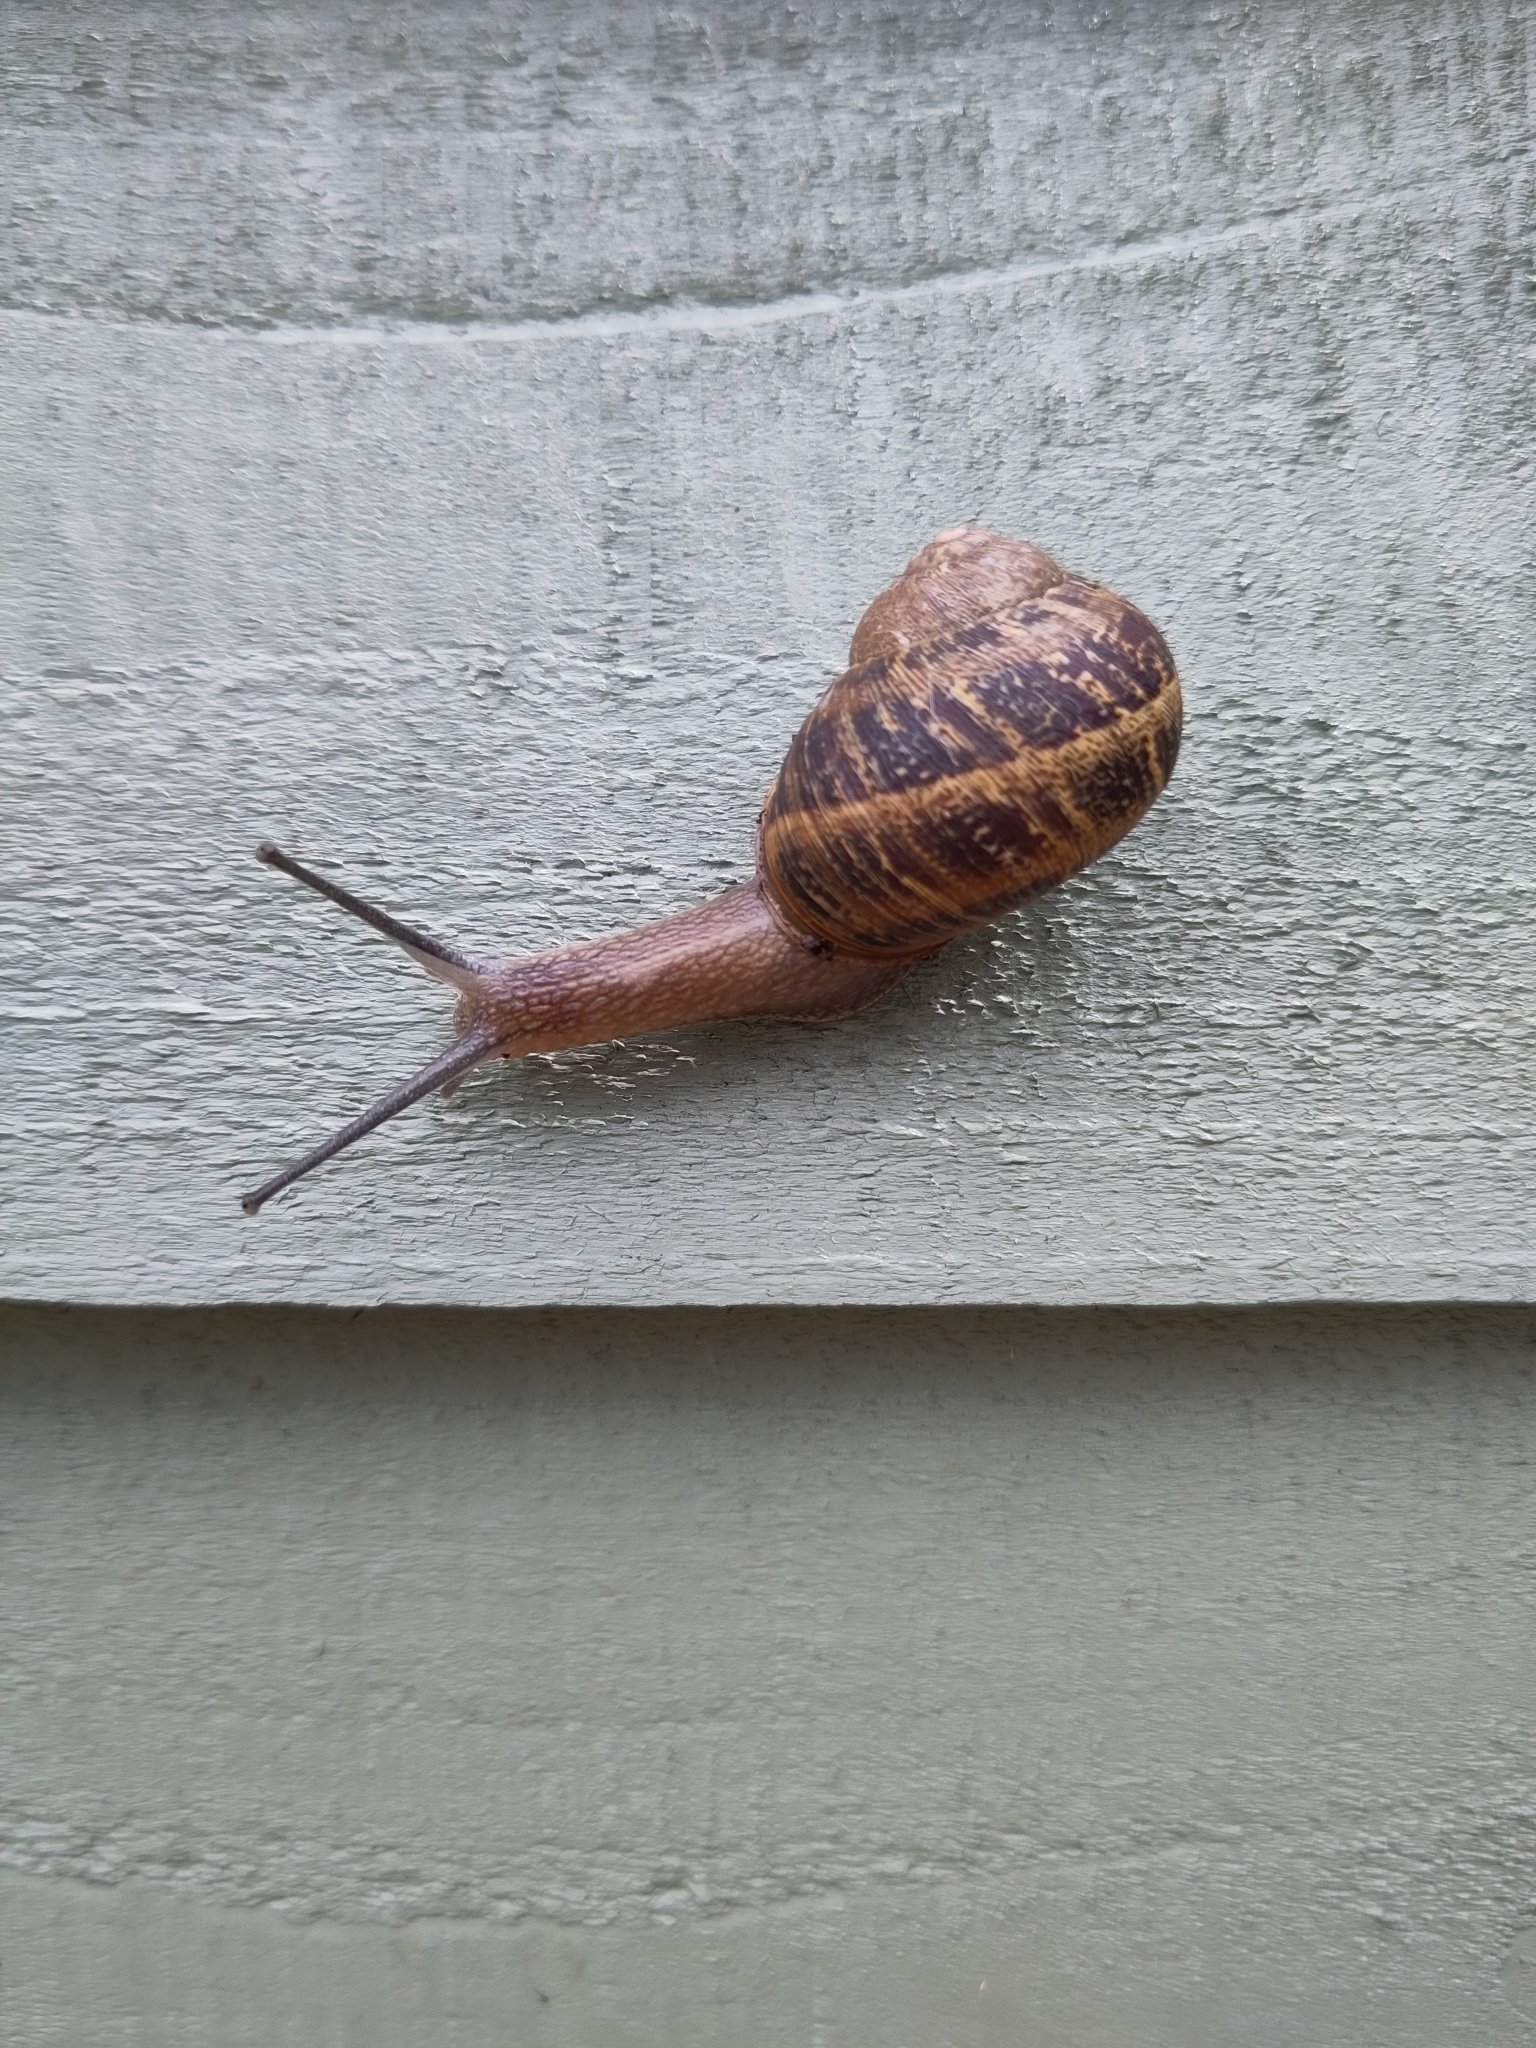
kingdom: Animalia
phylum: Mollusca
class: Gastropoda
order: Stylommatophora
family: Helicidae
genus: Cornu
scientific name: Cornu aspersum
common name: Brown garden snail
